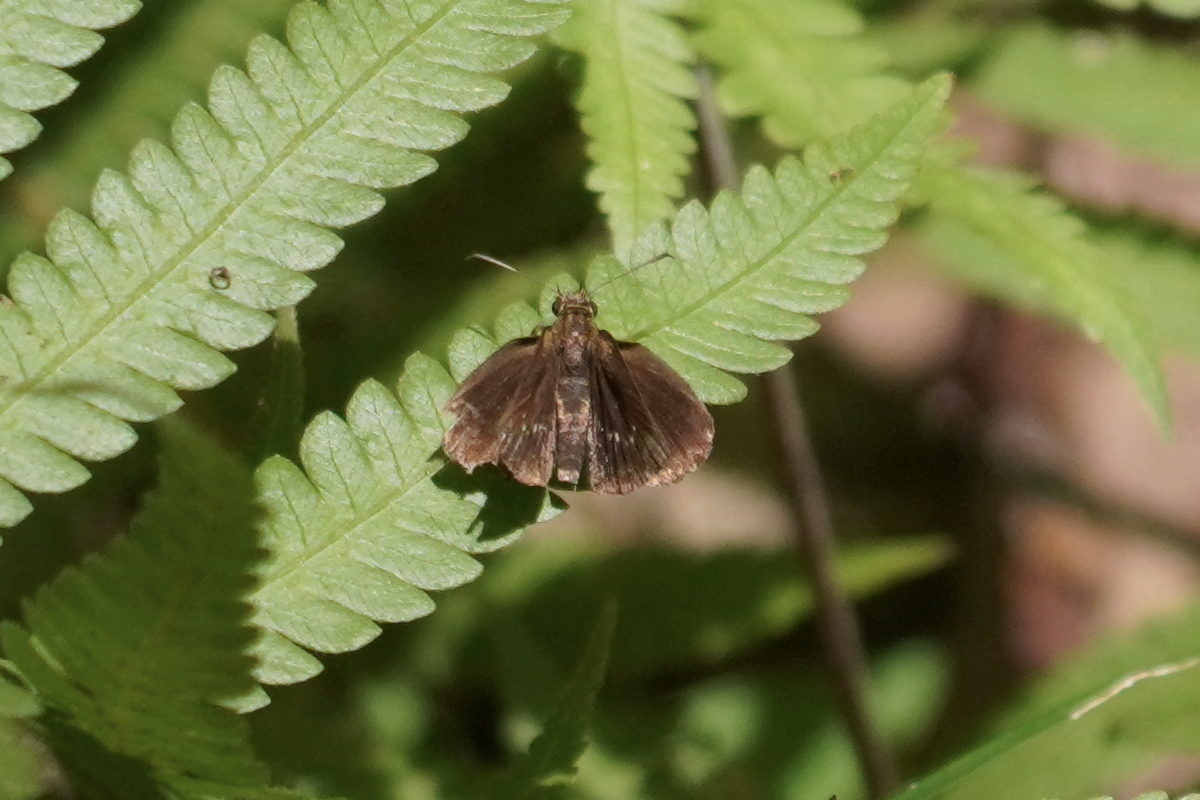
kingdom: Animalia
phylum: Arthropoda
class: Insecta
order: Lepidoptera
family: Hesperiidae
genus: Iambrix
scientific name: Iambrix salsala
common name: Chestnut bob
